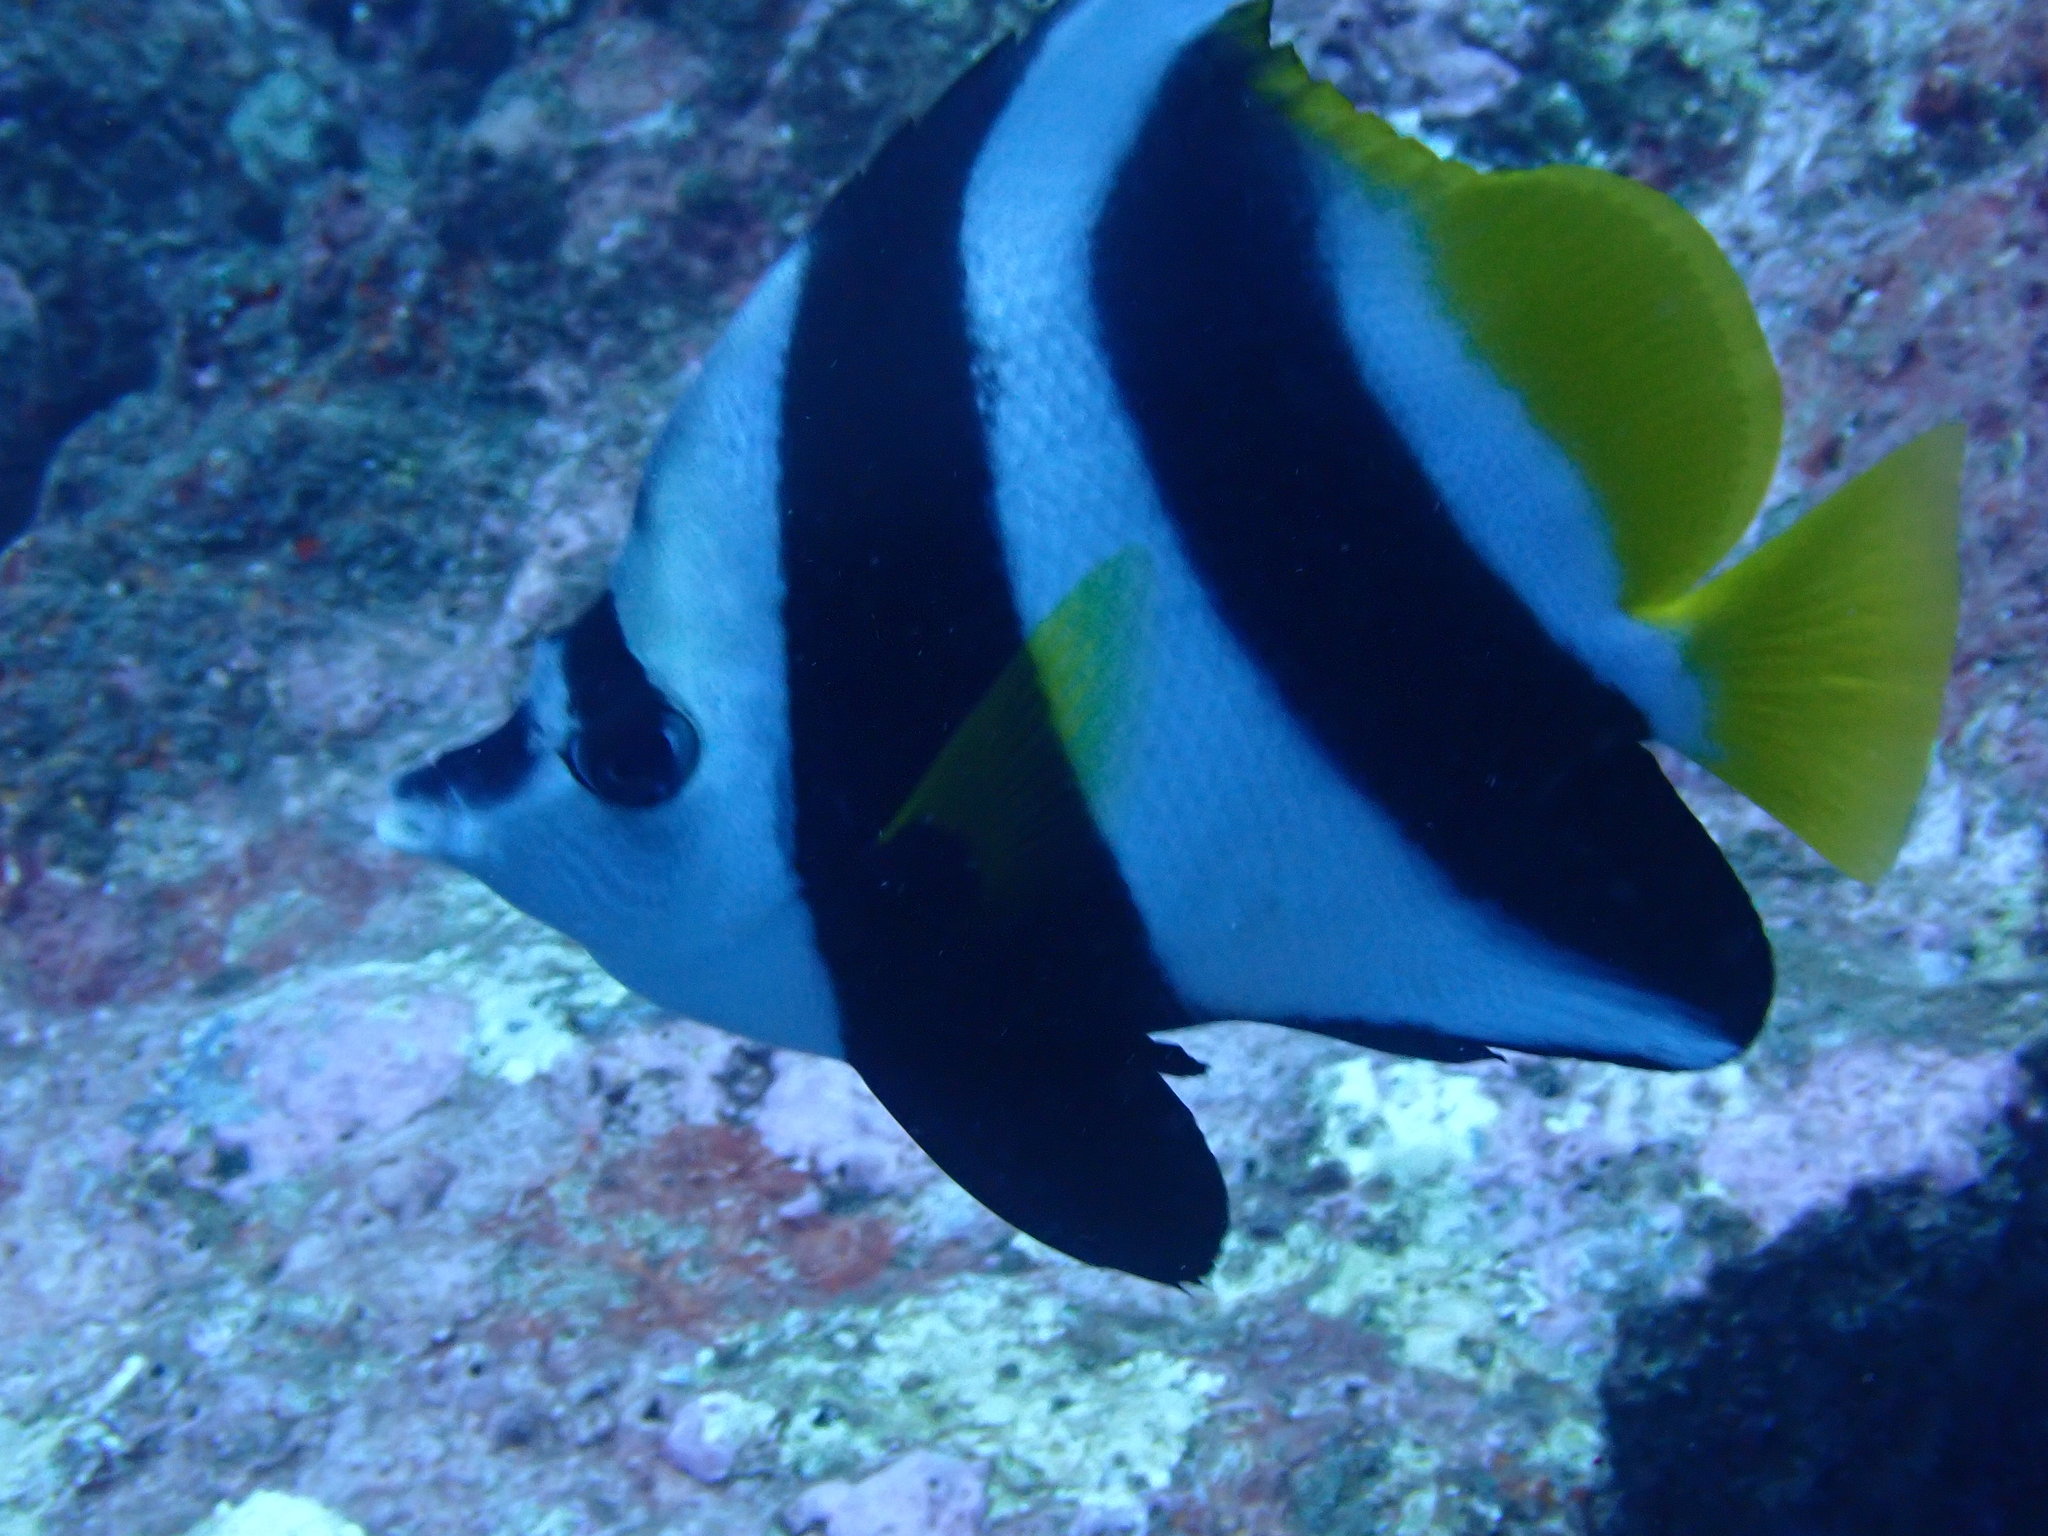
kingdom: Animalia
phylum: Chordata
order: Perciformes
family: Chaetodontidae
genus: Heniochus
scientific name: Heniochus acuminatus
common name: Pennant coralfish
